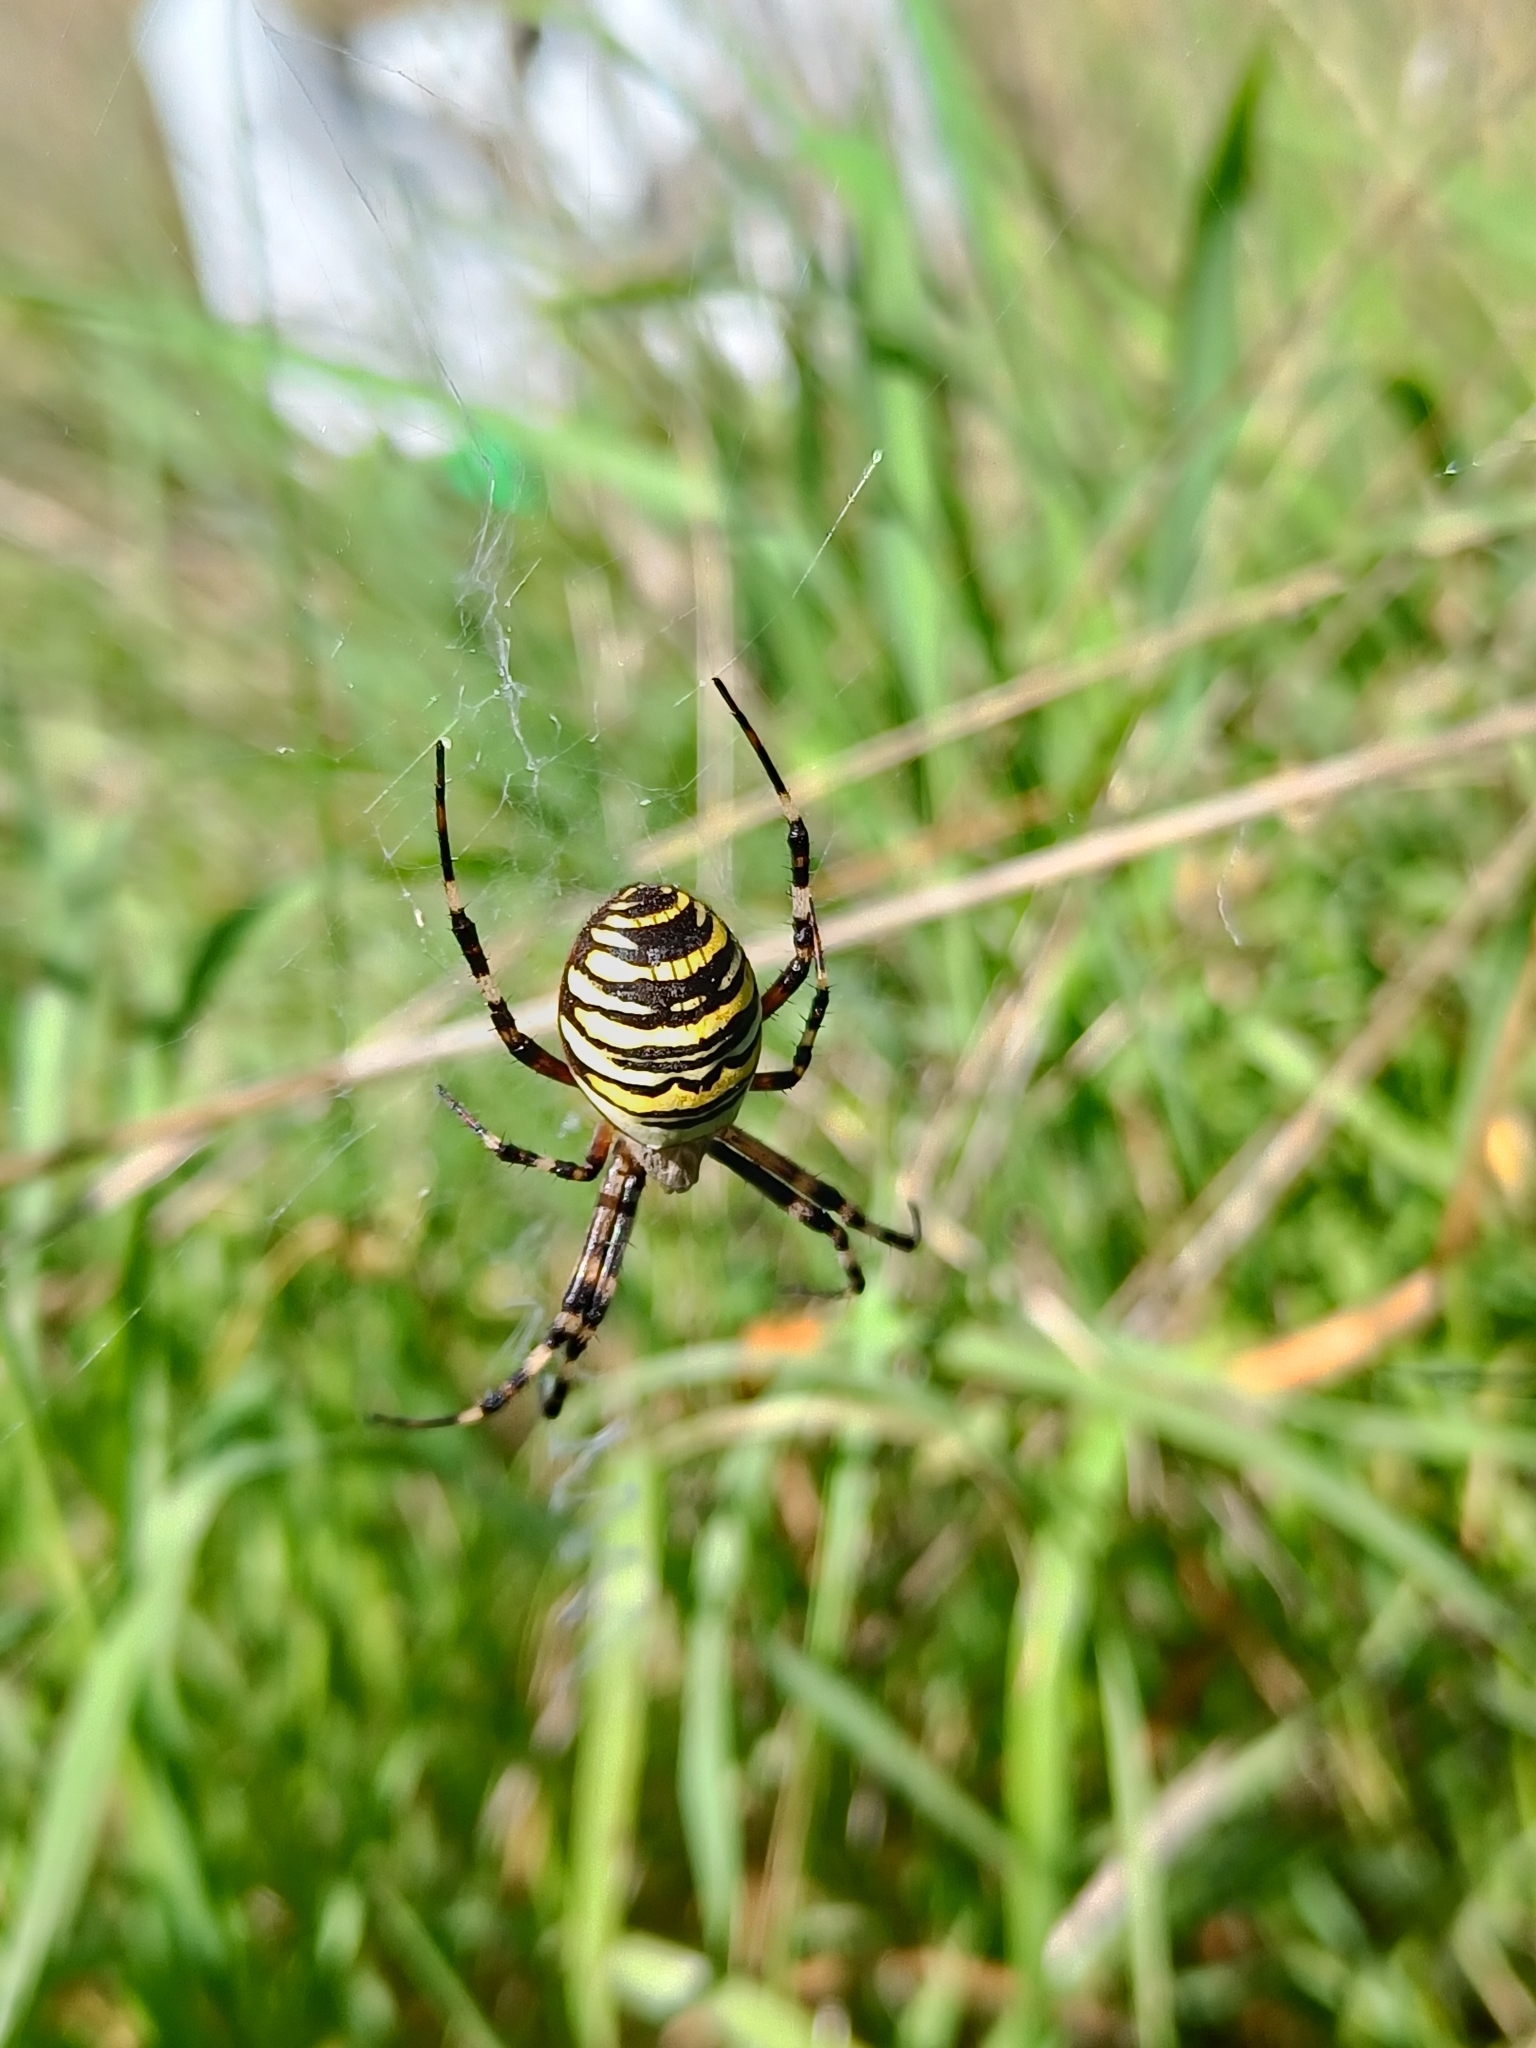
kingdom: Animalia
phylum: Arthropoda
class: Arachnida
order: Araneae
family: Araneidae
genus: Argiope
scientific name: Argiope bruennichi
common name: Wasp spider
